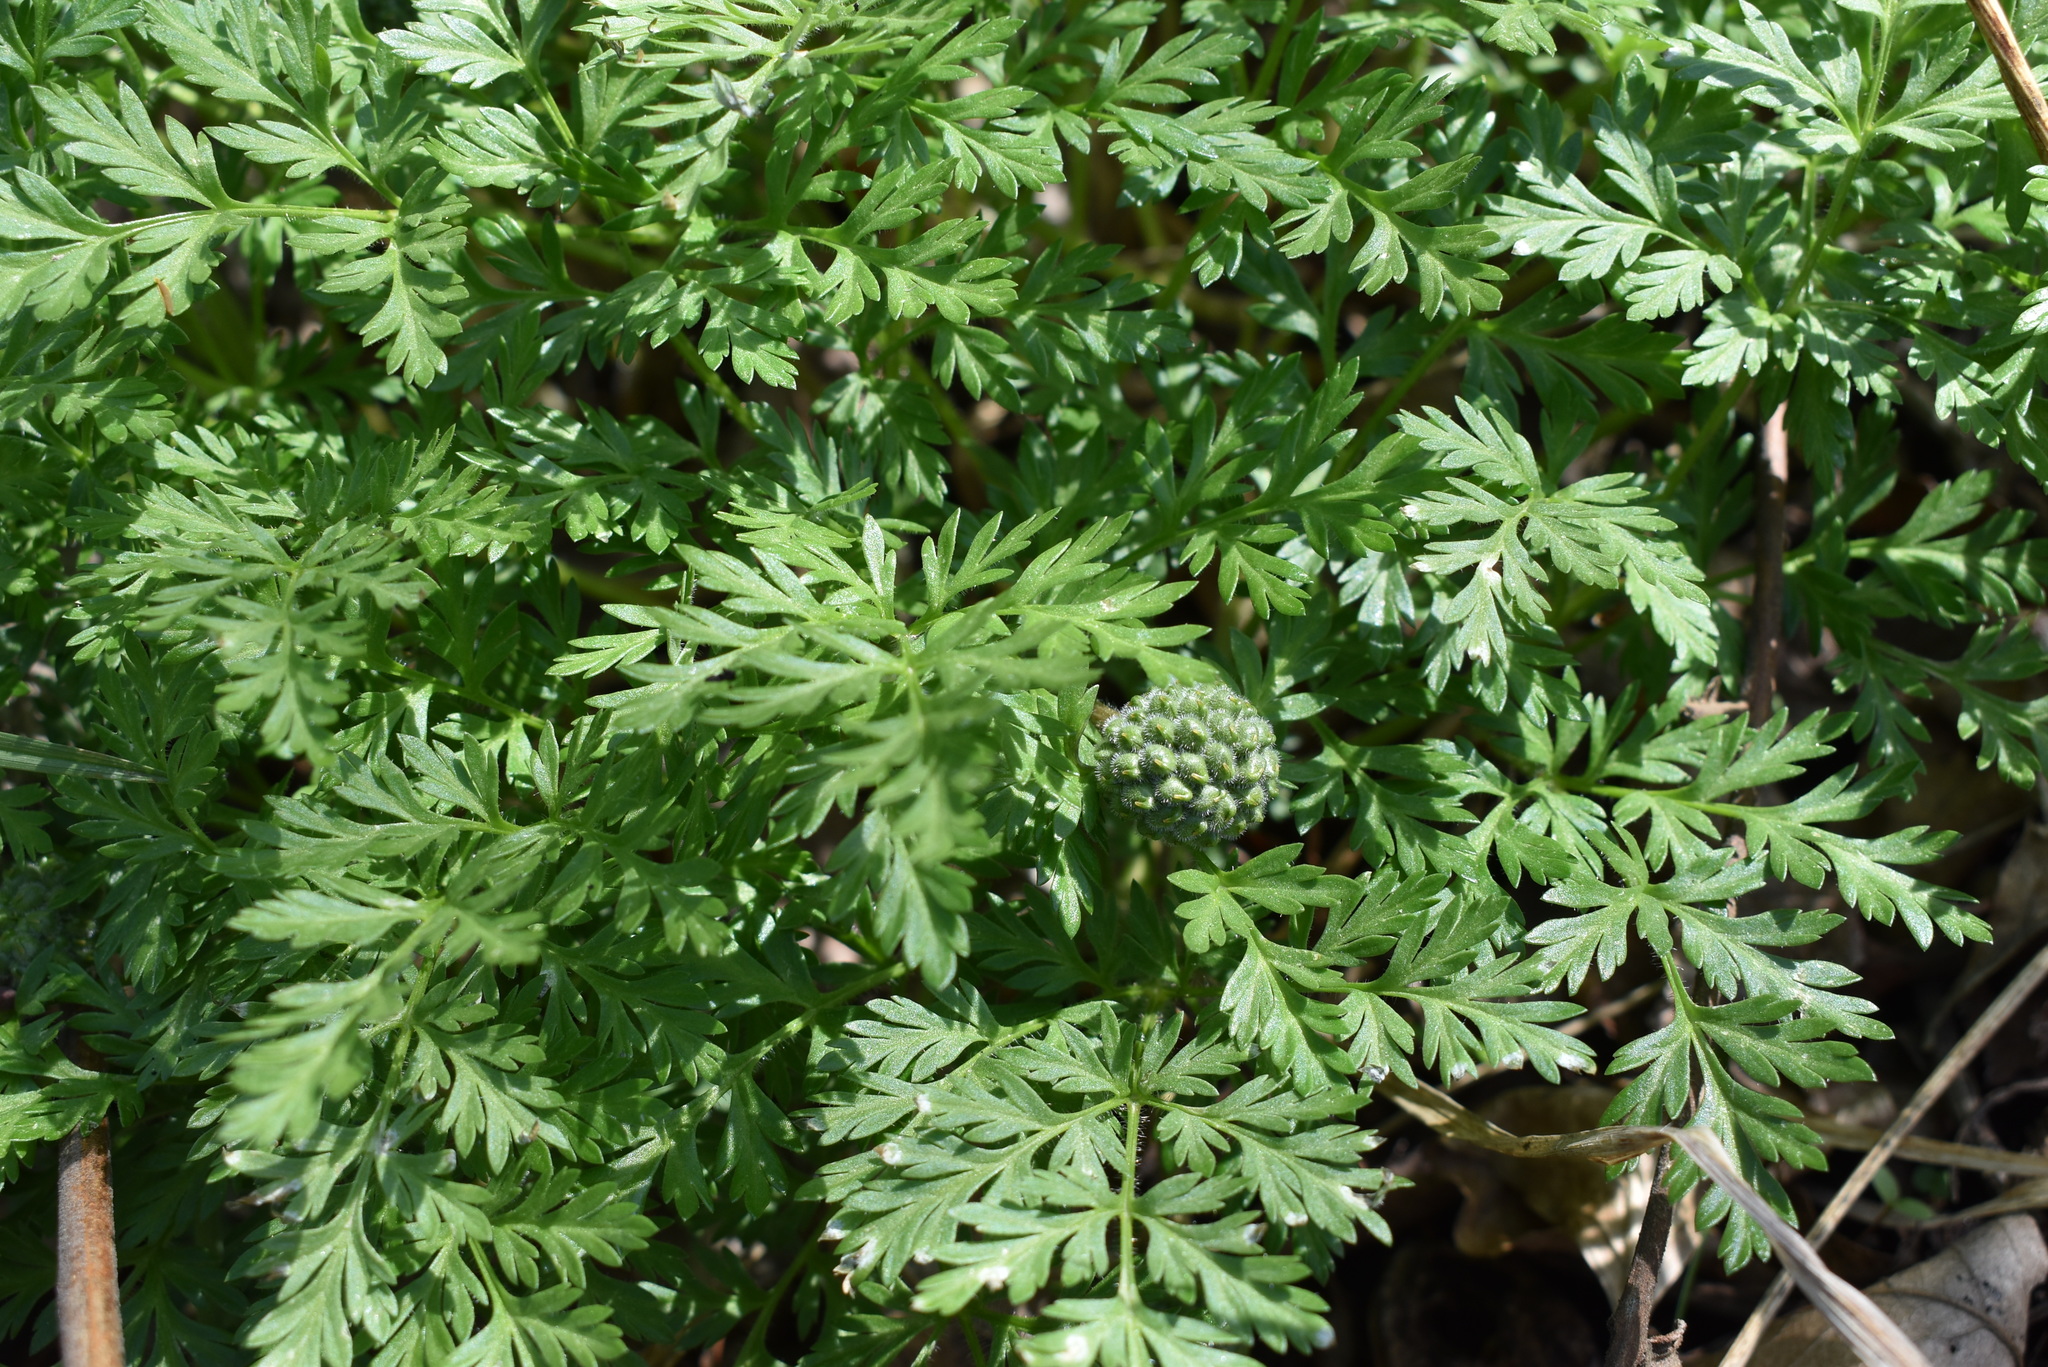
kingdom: Plantae
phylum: Tracheophyta
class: Magnoliopsida
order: Ranunculales
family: Ranunculaceae
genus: Adonis
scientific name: Adonis amurensis
